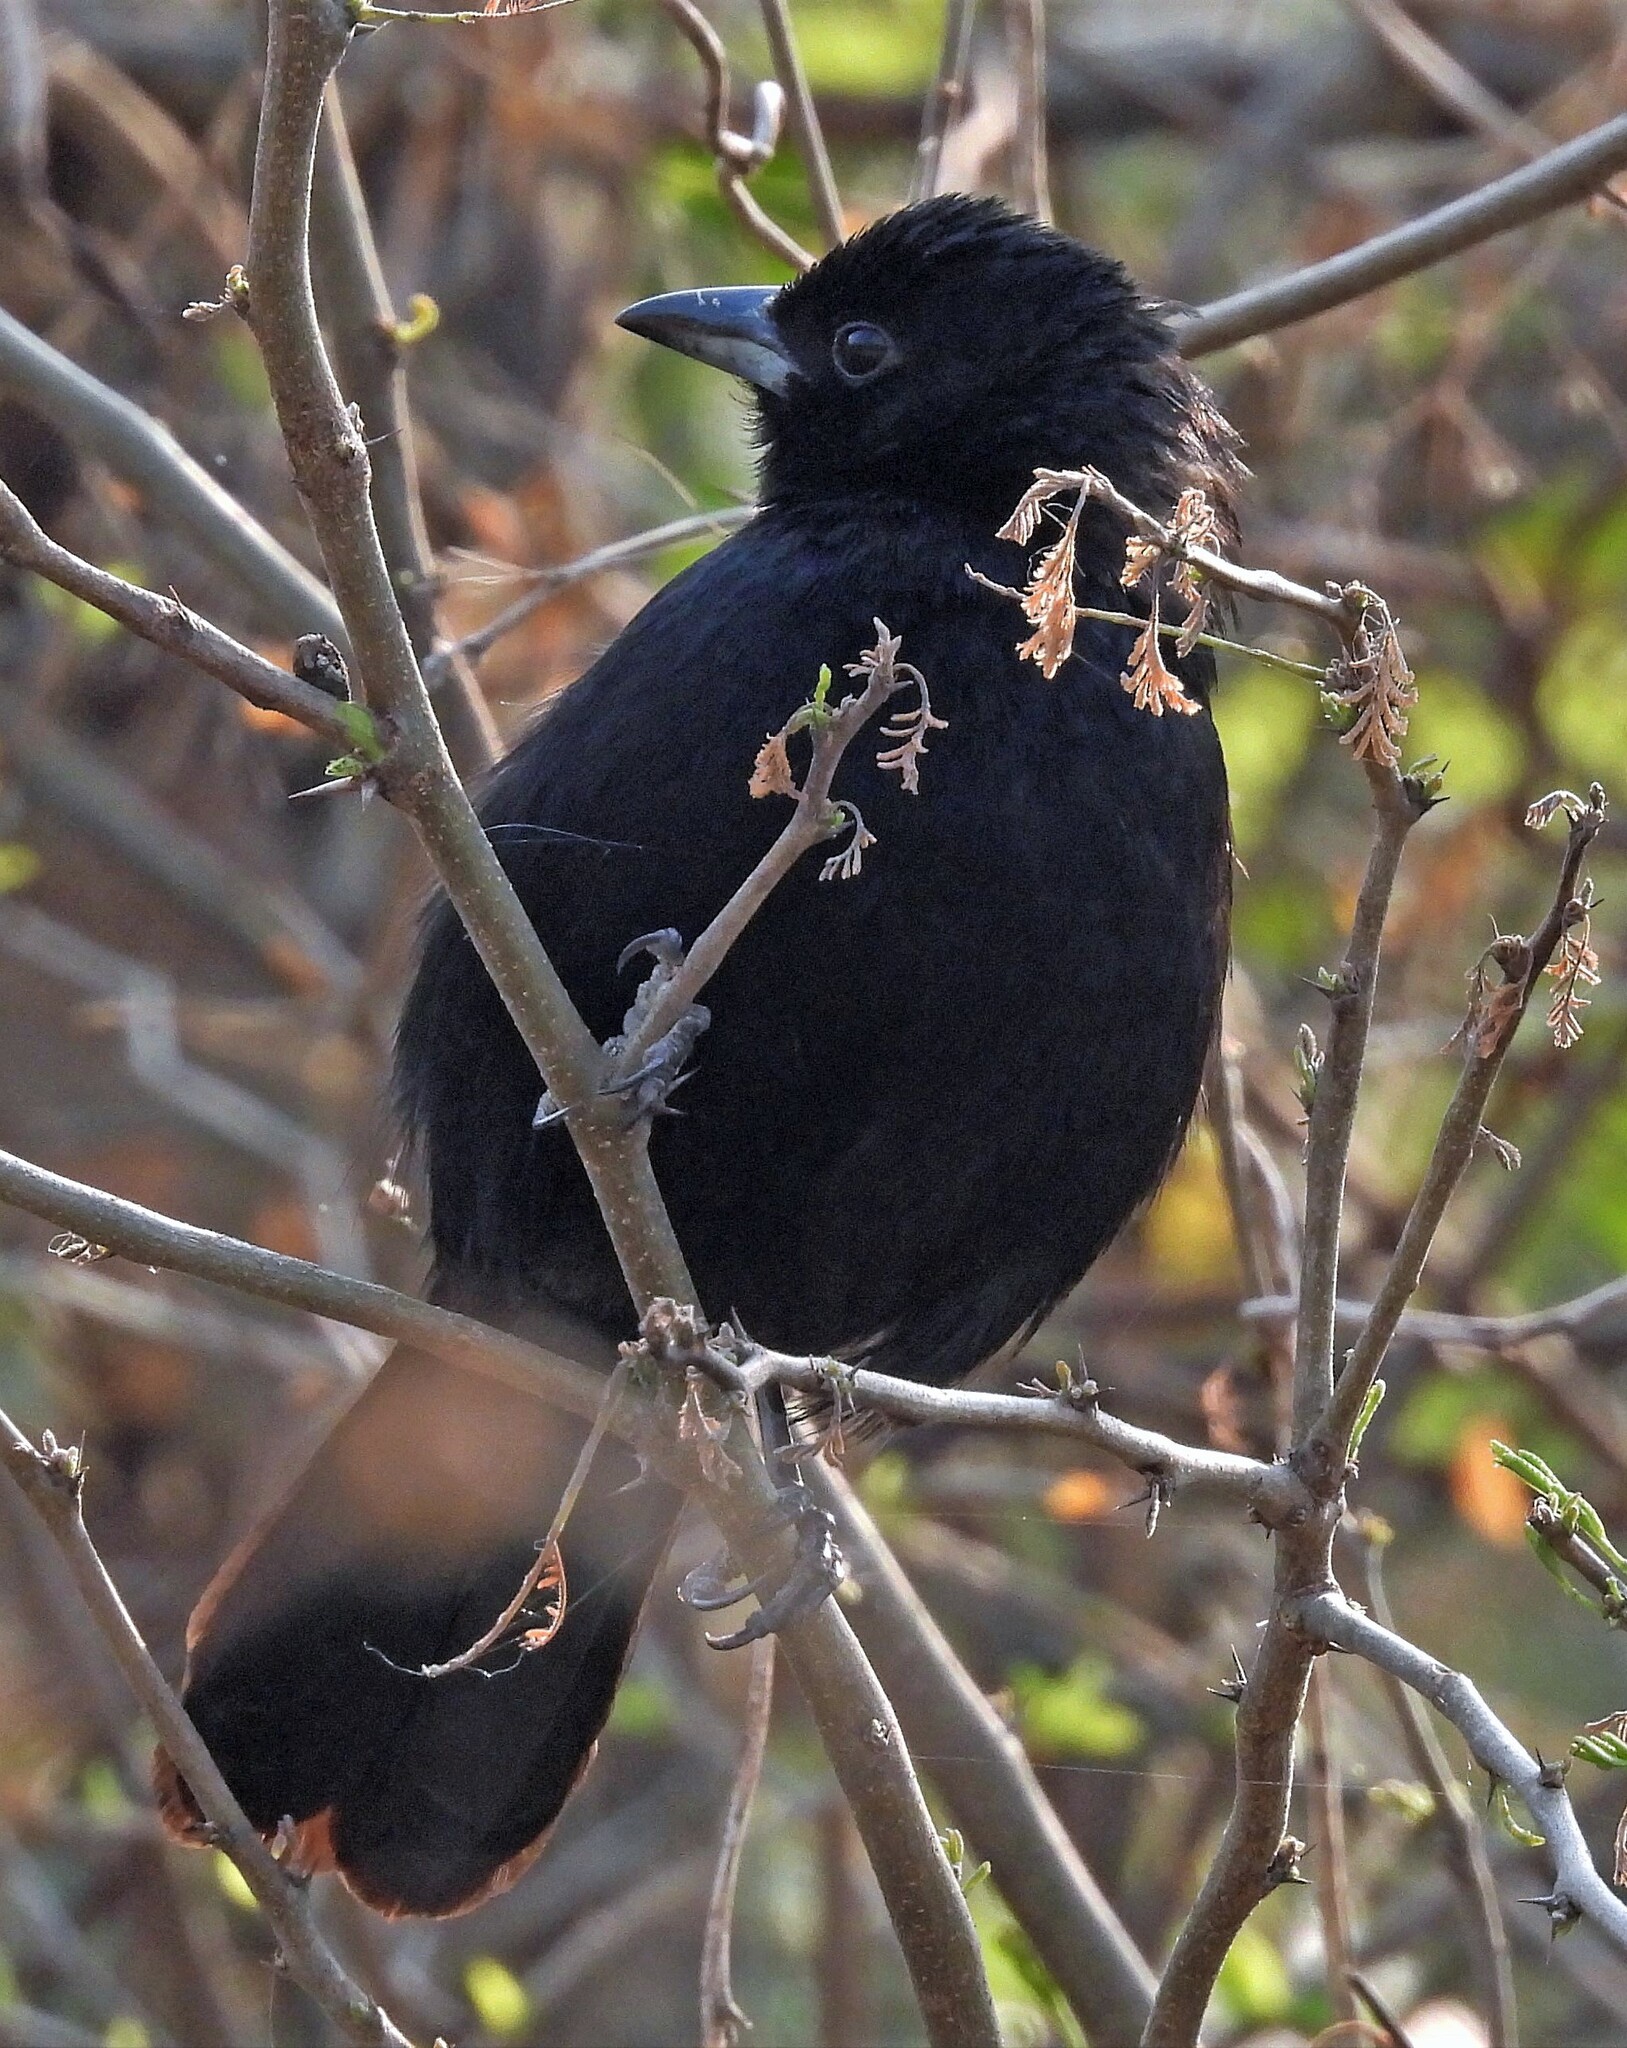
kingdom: Animalia
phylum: Chordata
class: Aves
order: Passeriformes
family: Thraupidae
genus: Tachyphonus
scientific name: Tachyphonus rufus
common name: White-lined tanager
